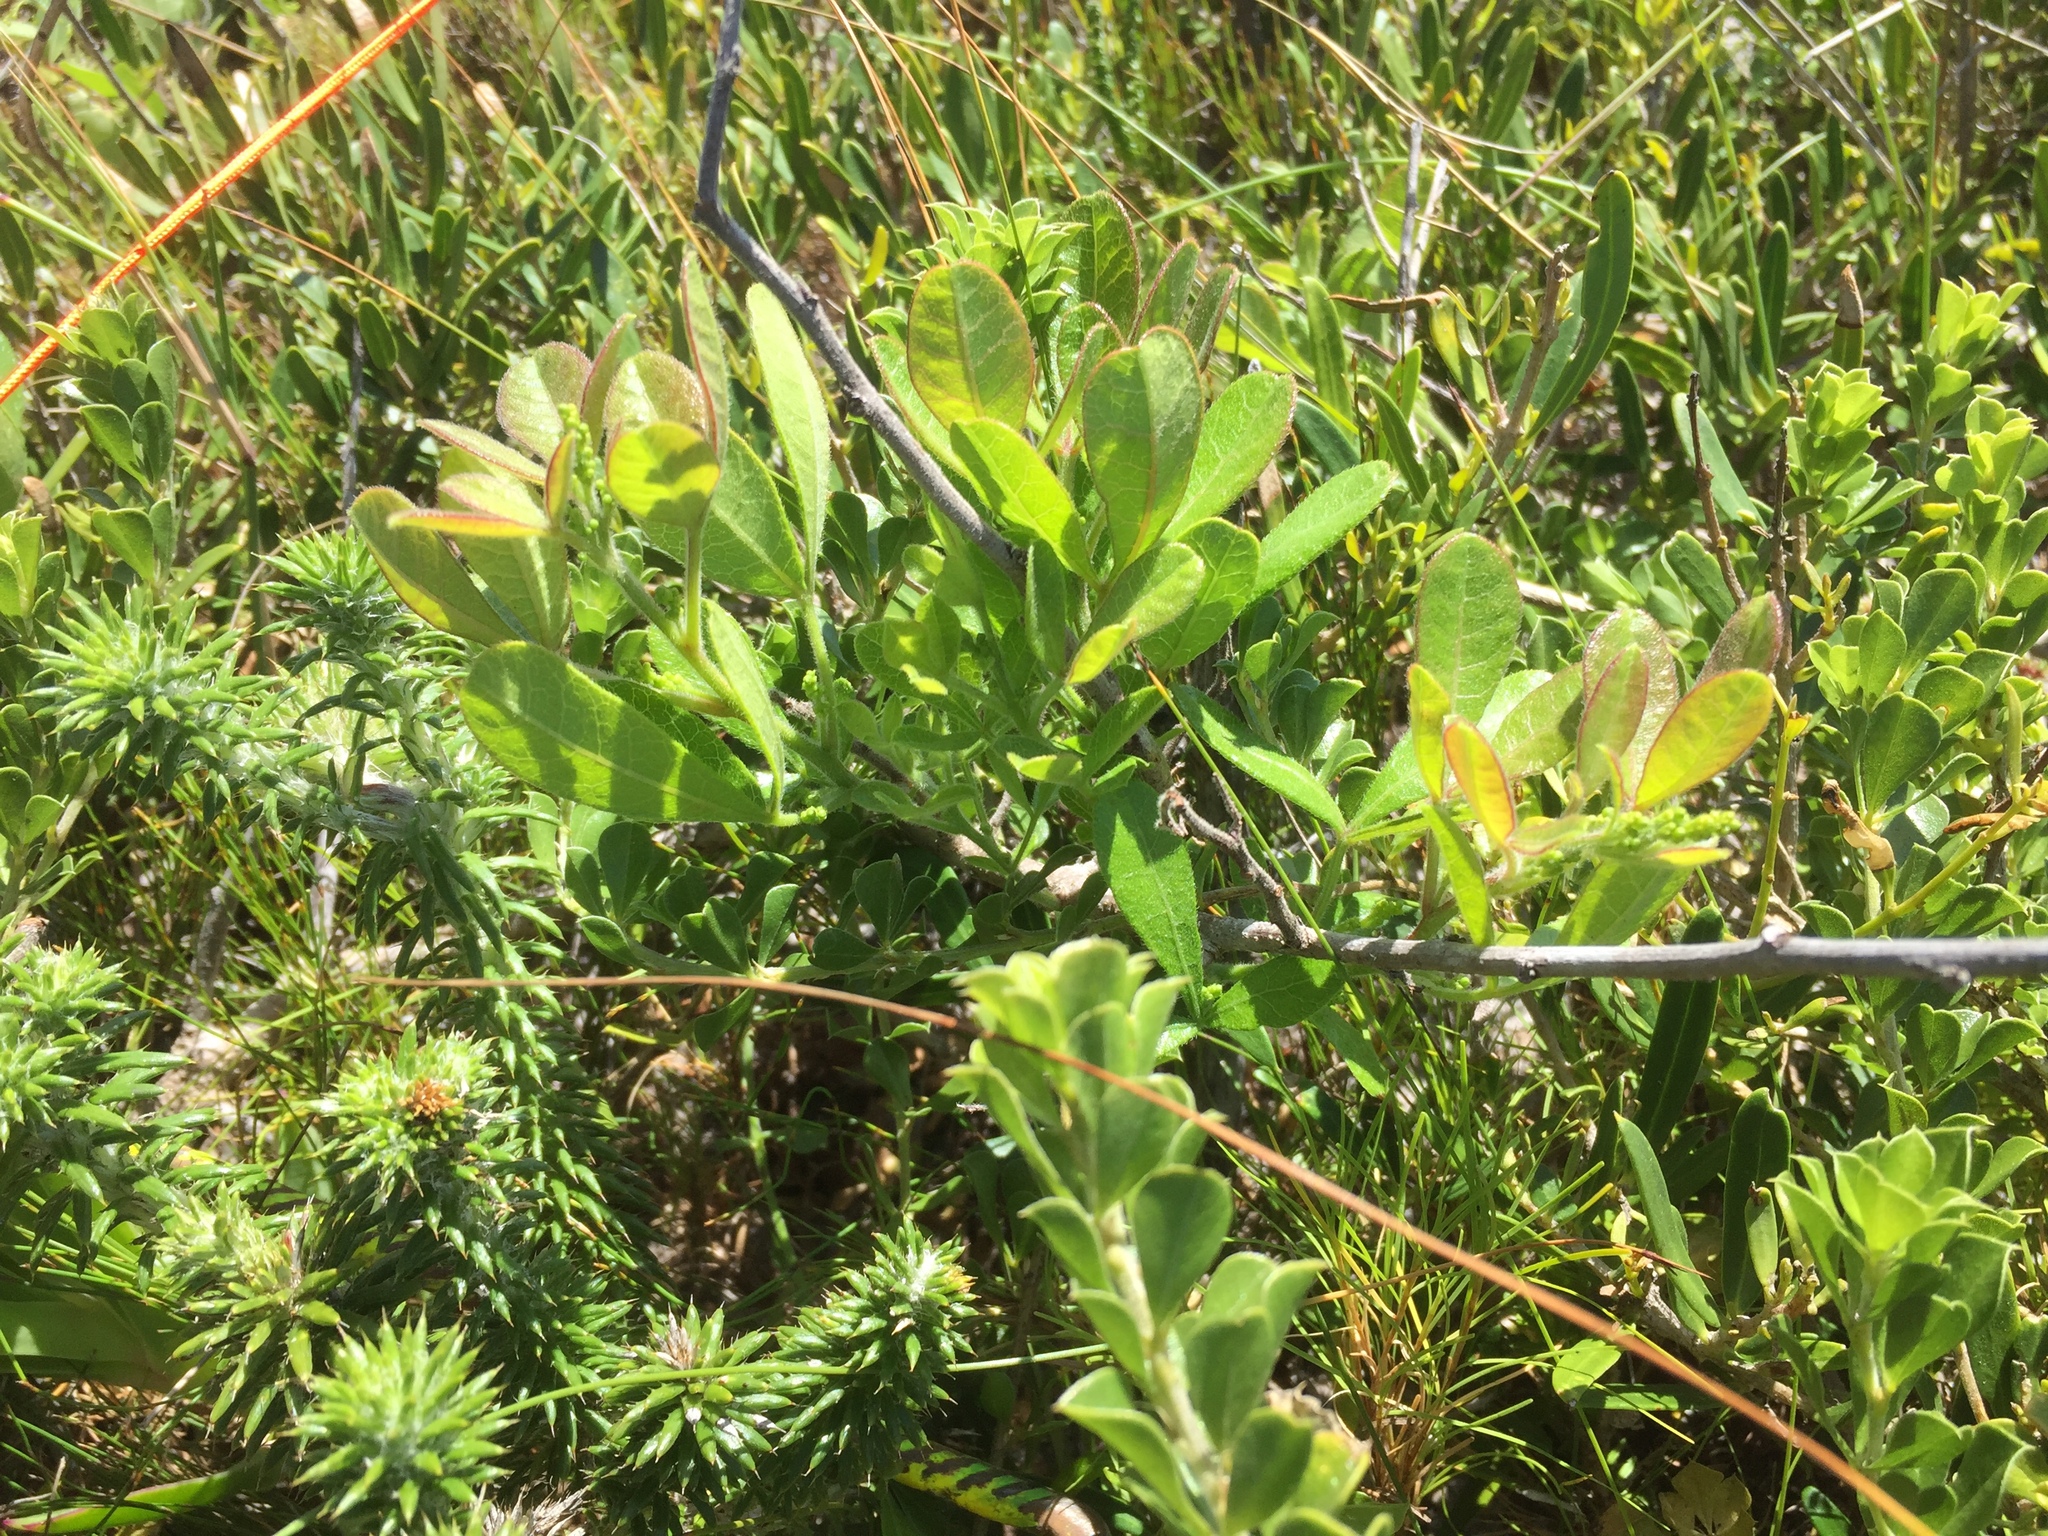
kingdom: Plantae
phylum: Tracheophyta
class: Magnoliopsida
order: Sapindales
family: Anacardiaceae
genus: Searsia
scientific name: Searsia laevigata
